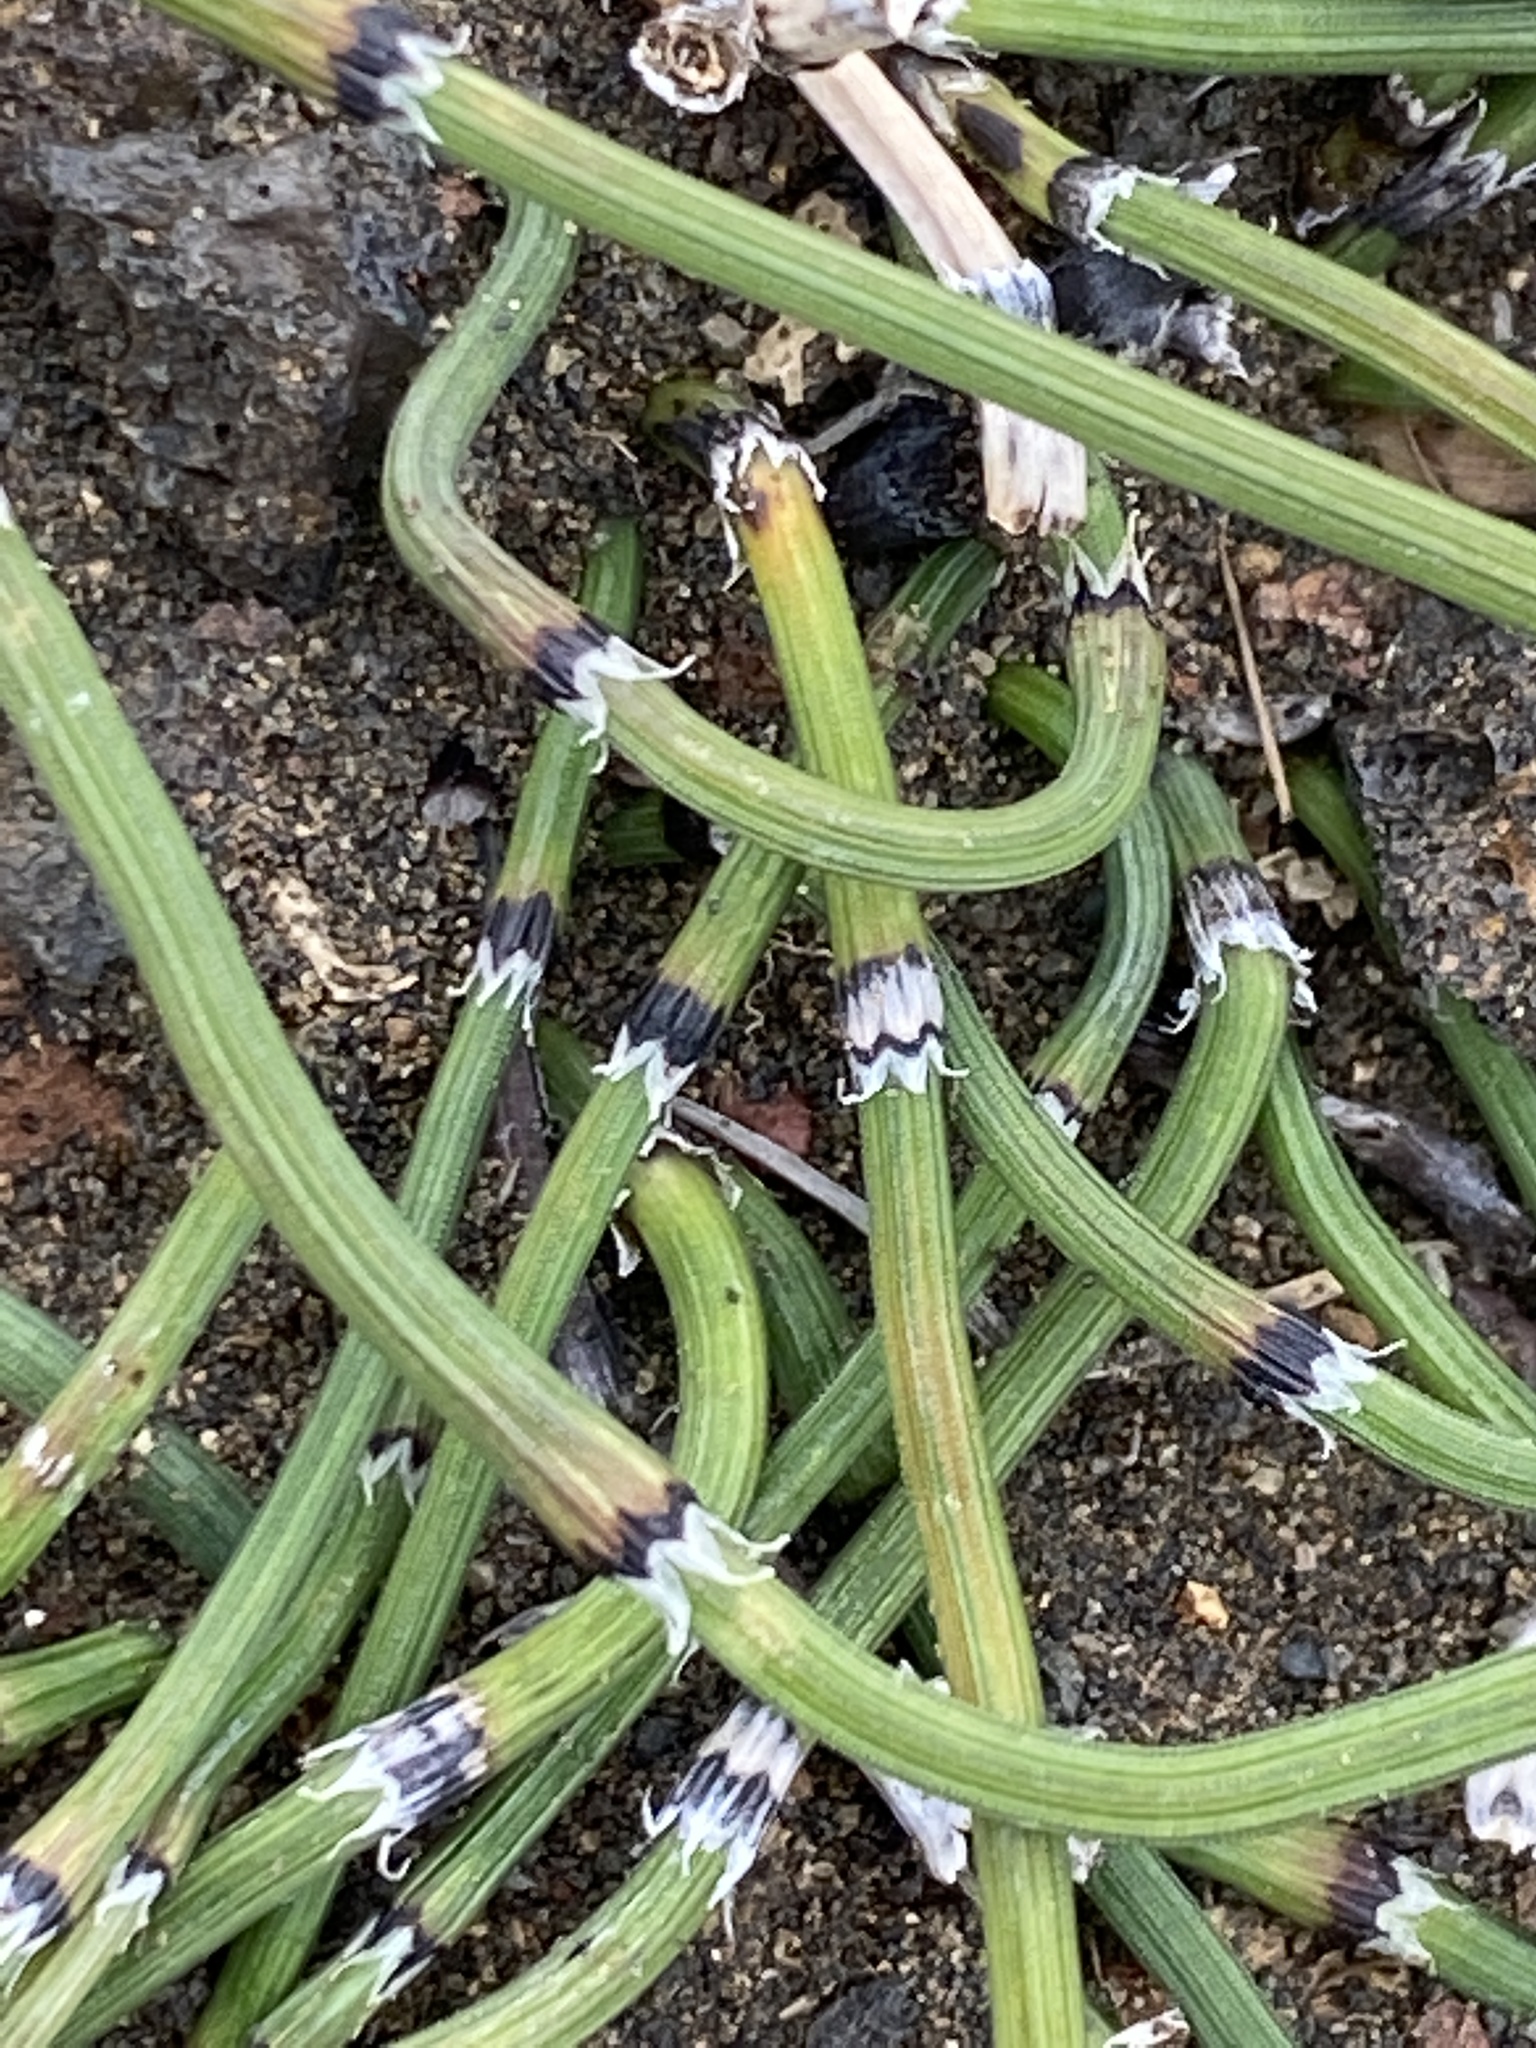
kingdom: Plantae
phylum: Tracheophyta
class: Polypodiopsida
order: Equisetales
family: Equisetaceae
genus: Equisetum
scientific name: Equisetum variegatum
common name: Variegated horsetail
